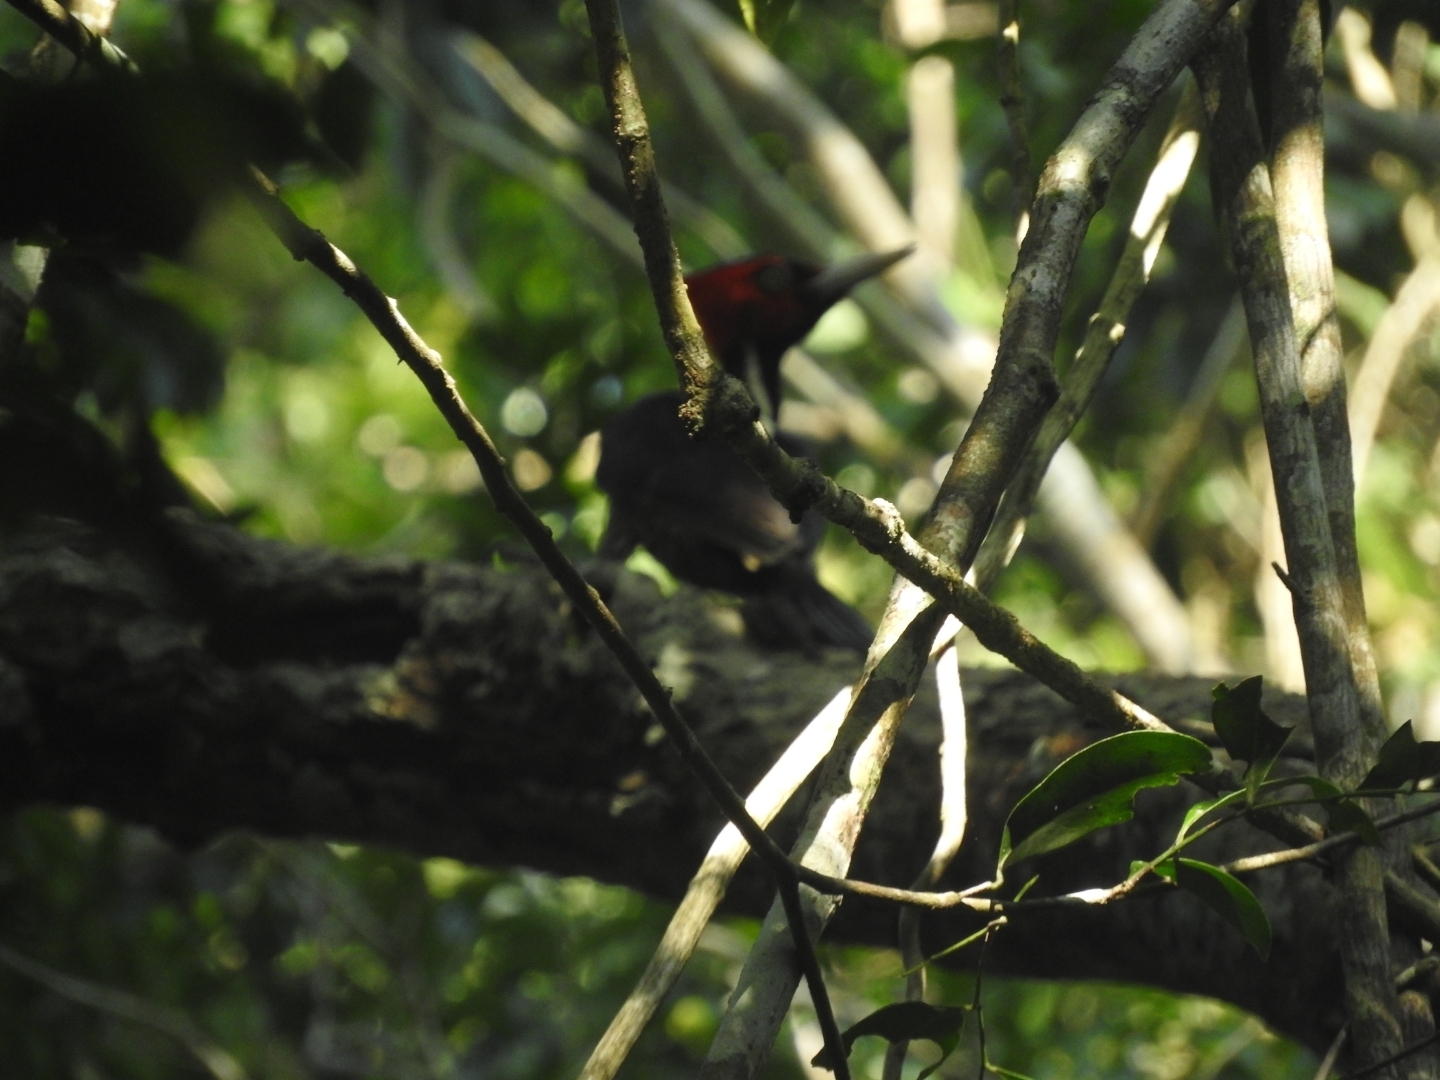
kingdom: Animalia
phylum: Chordata
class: Aves
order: Piciformes
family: Picidae
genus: Campephilus
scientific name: Campephilus guatemalensis
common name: Pale-billed woodpecker
